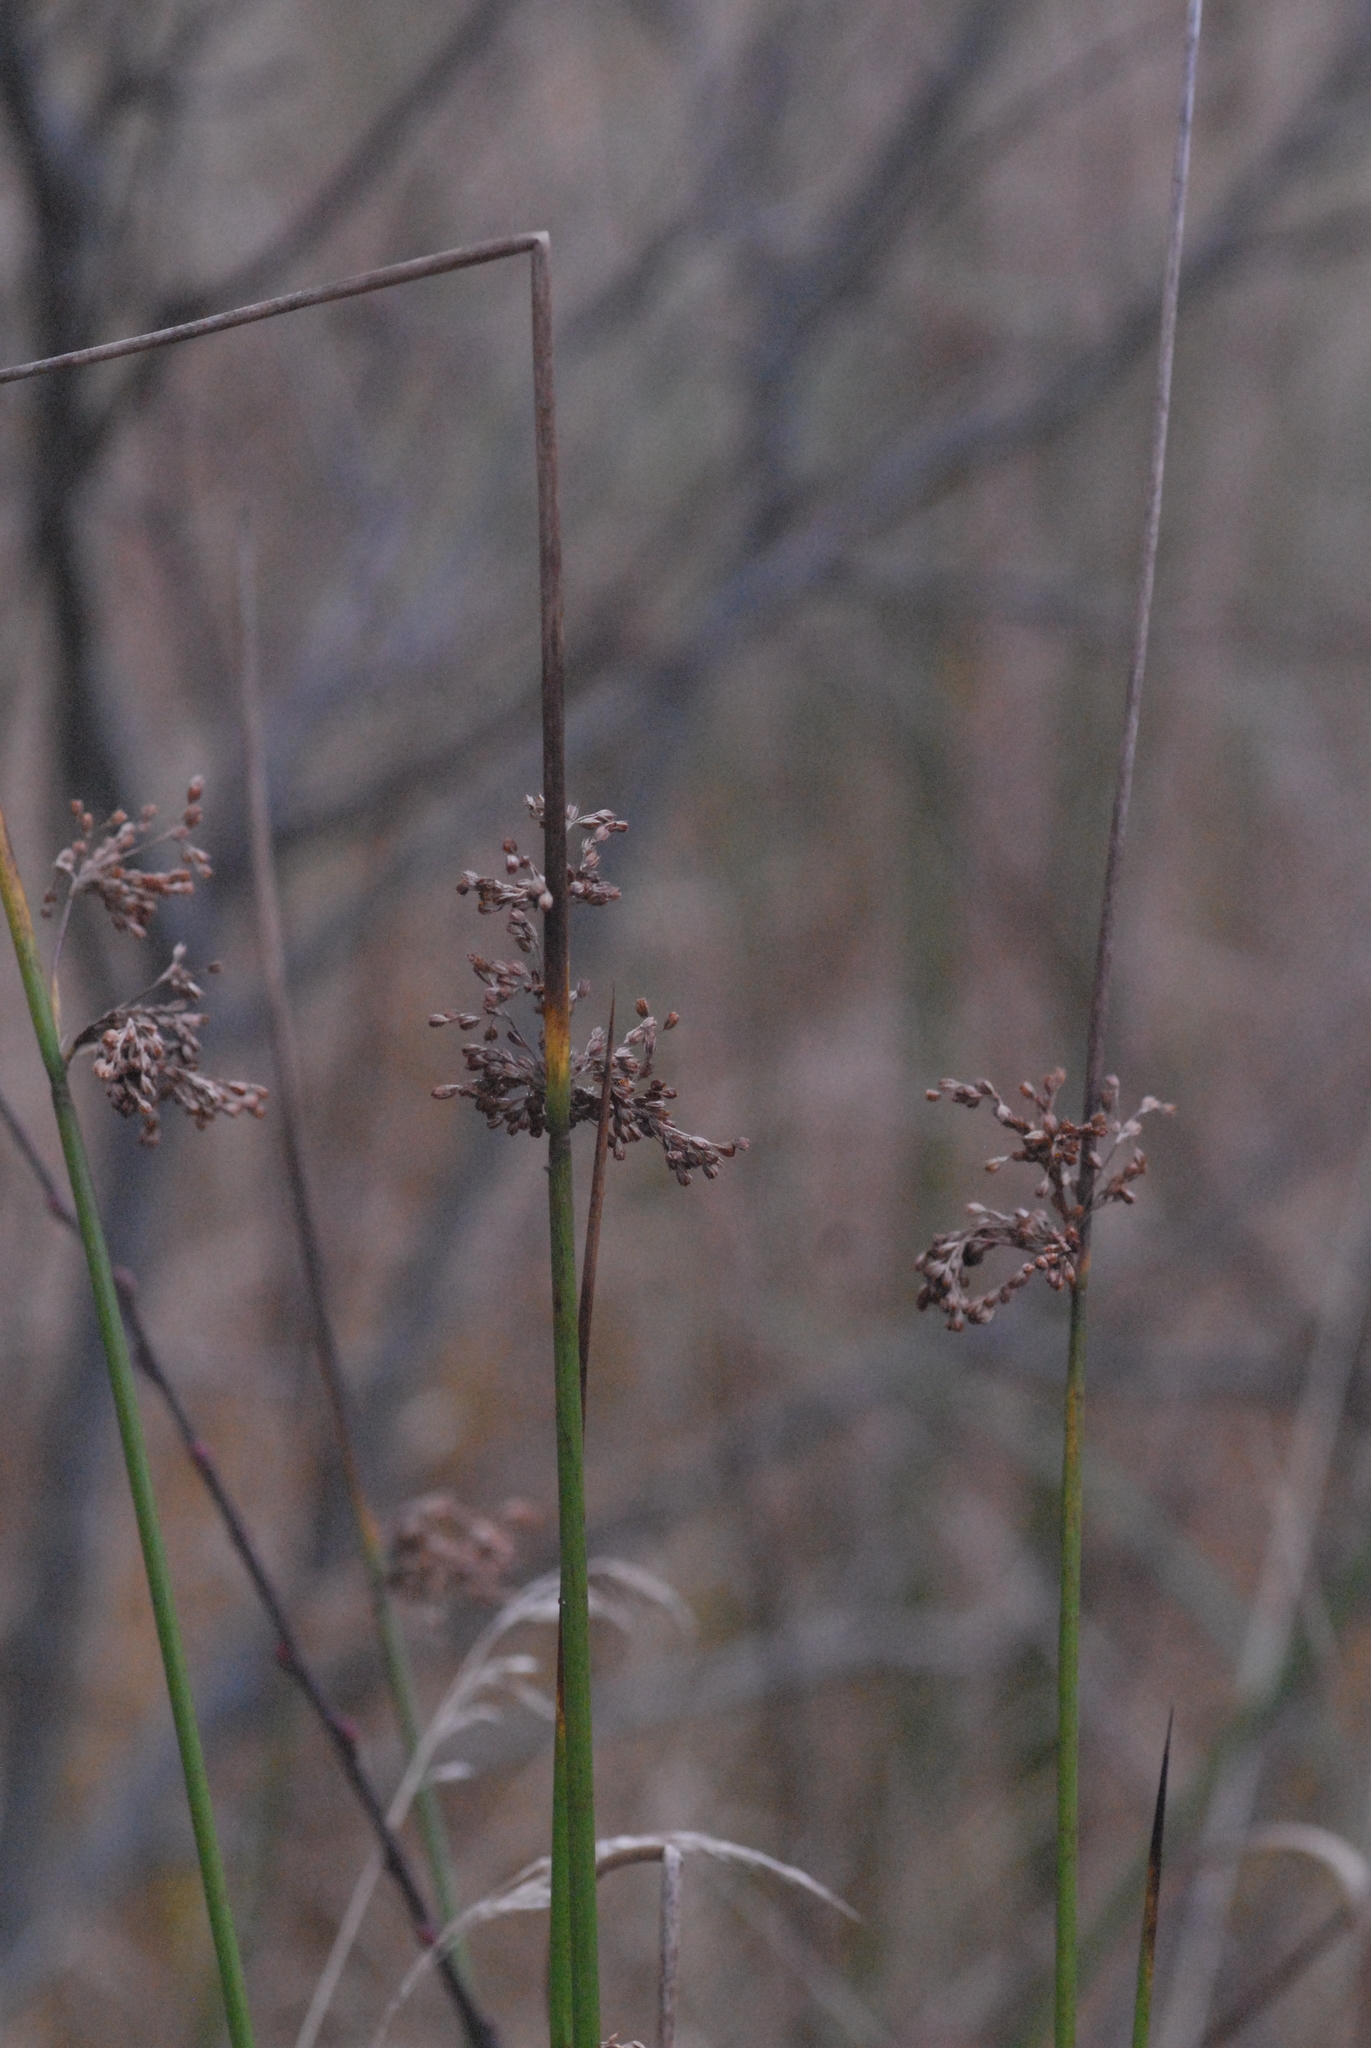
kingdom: Plantae
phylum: Tracheophyta
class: Liliopsida
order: Poales
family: Juncaceae
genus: Juncus
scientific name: Juncus effusus
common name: Soft rush
